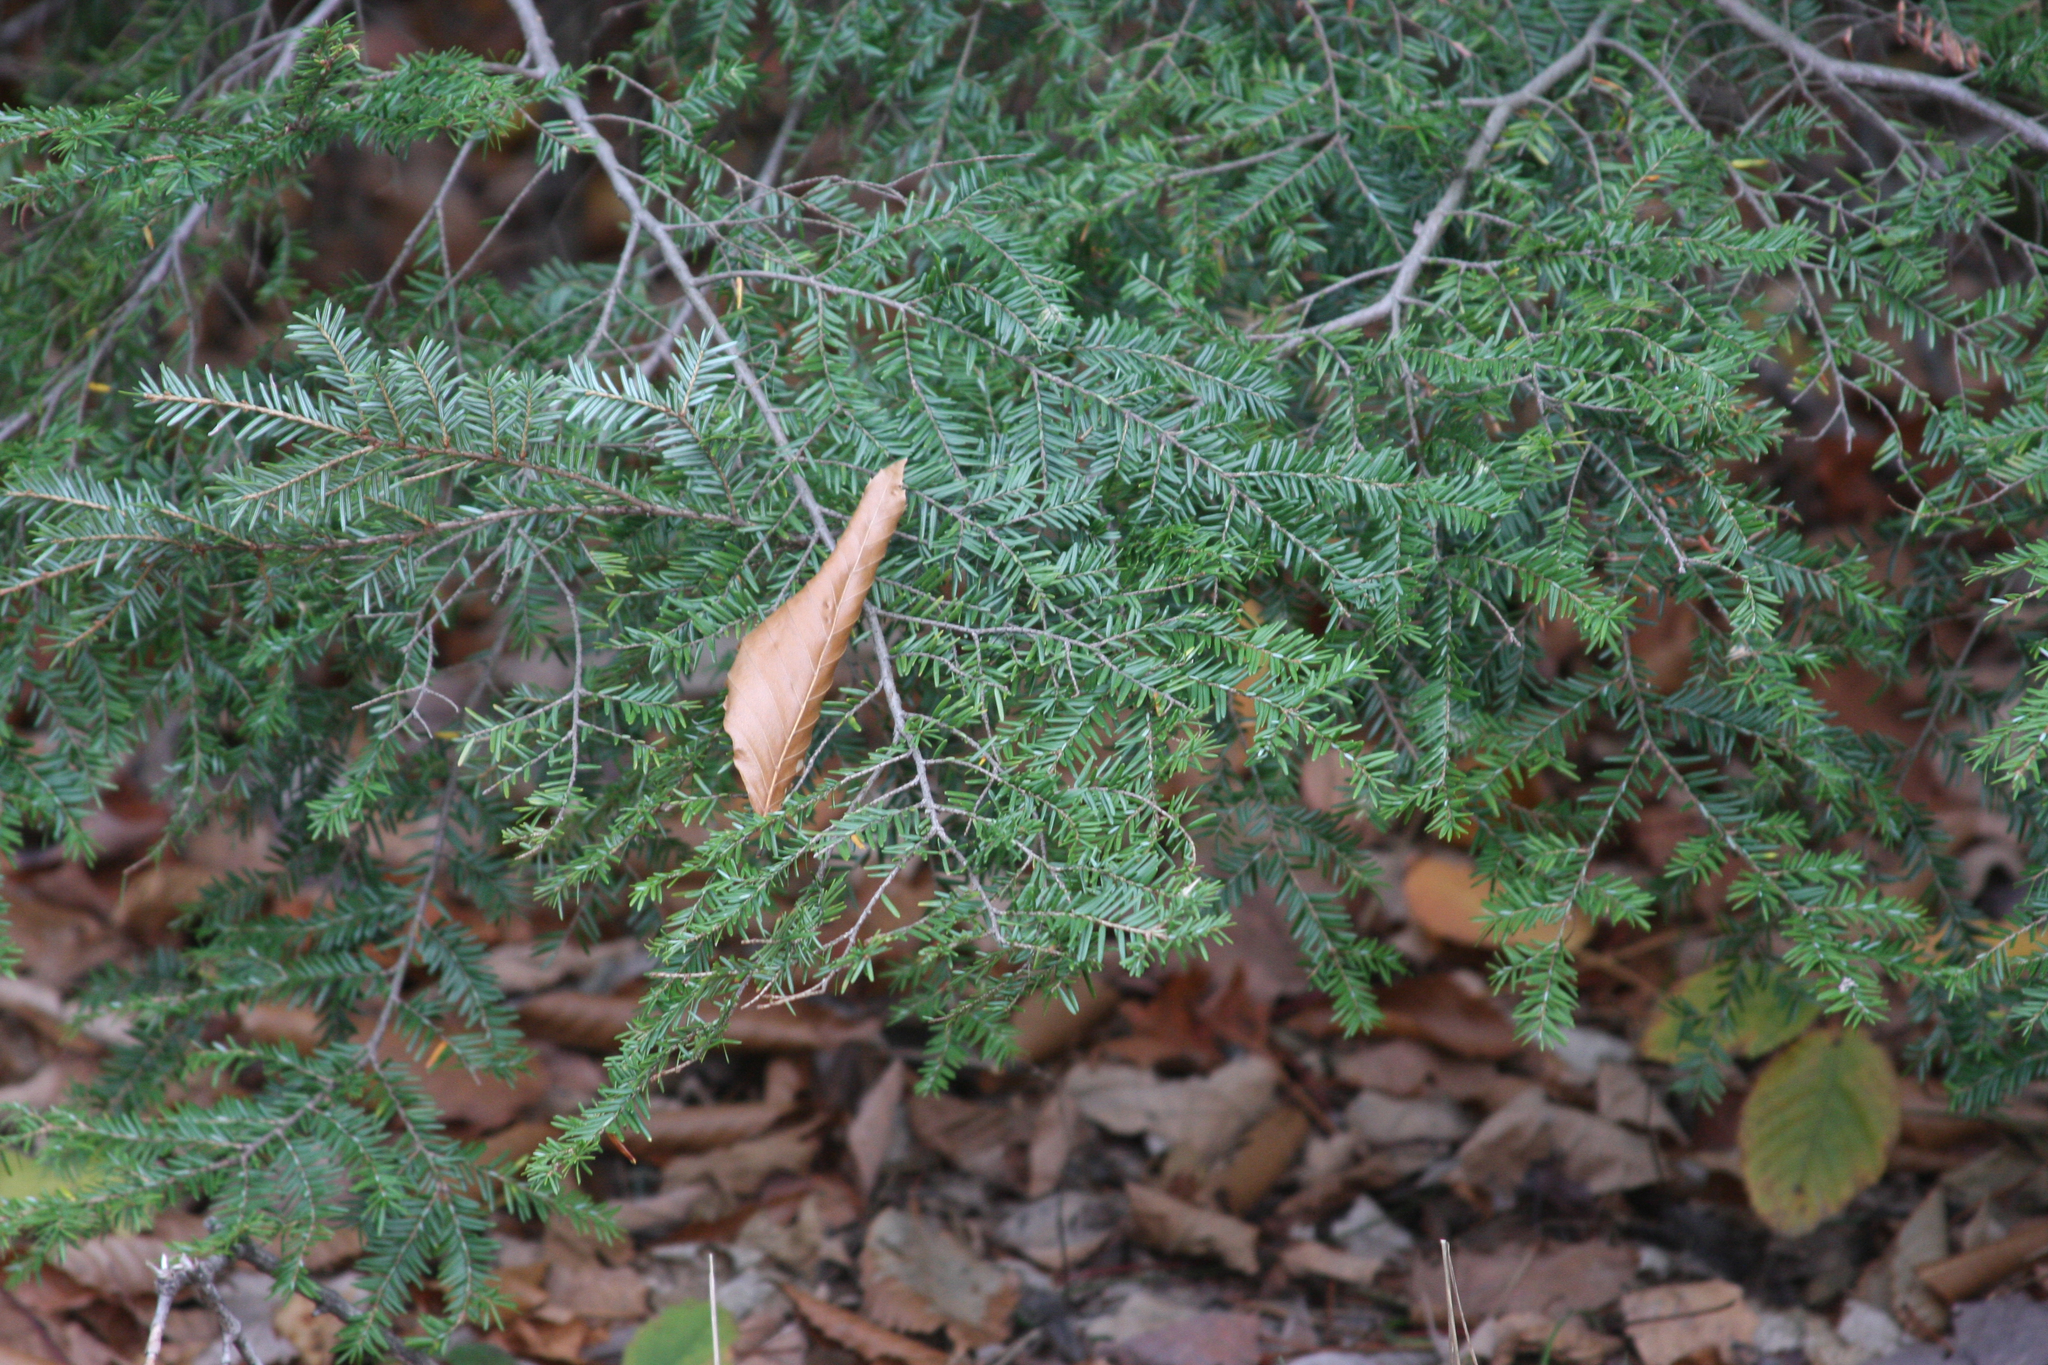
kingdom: Plantae
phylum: Tracheophyta
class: Pinopsida
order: Pinales
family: Pinaceae
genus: Tsuga
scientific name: Tsuga canadensis
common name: Eastern hemlock
